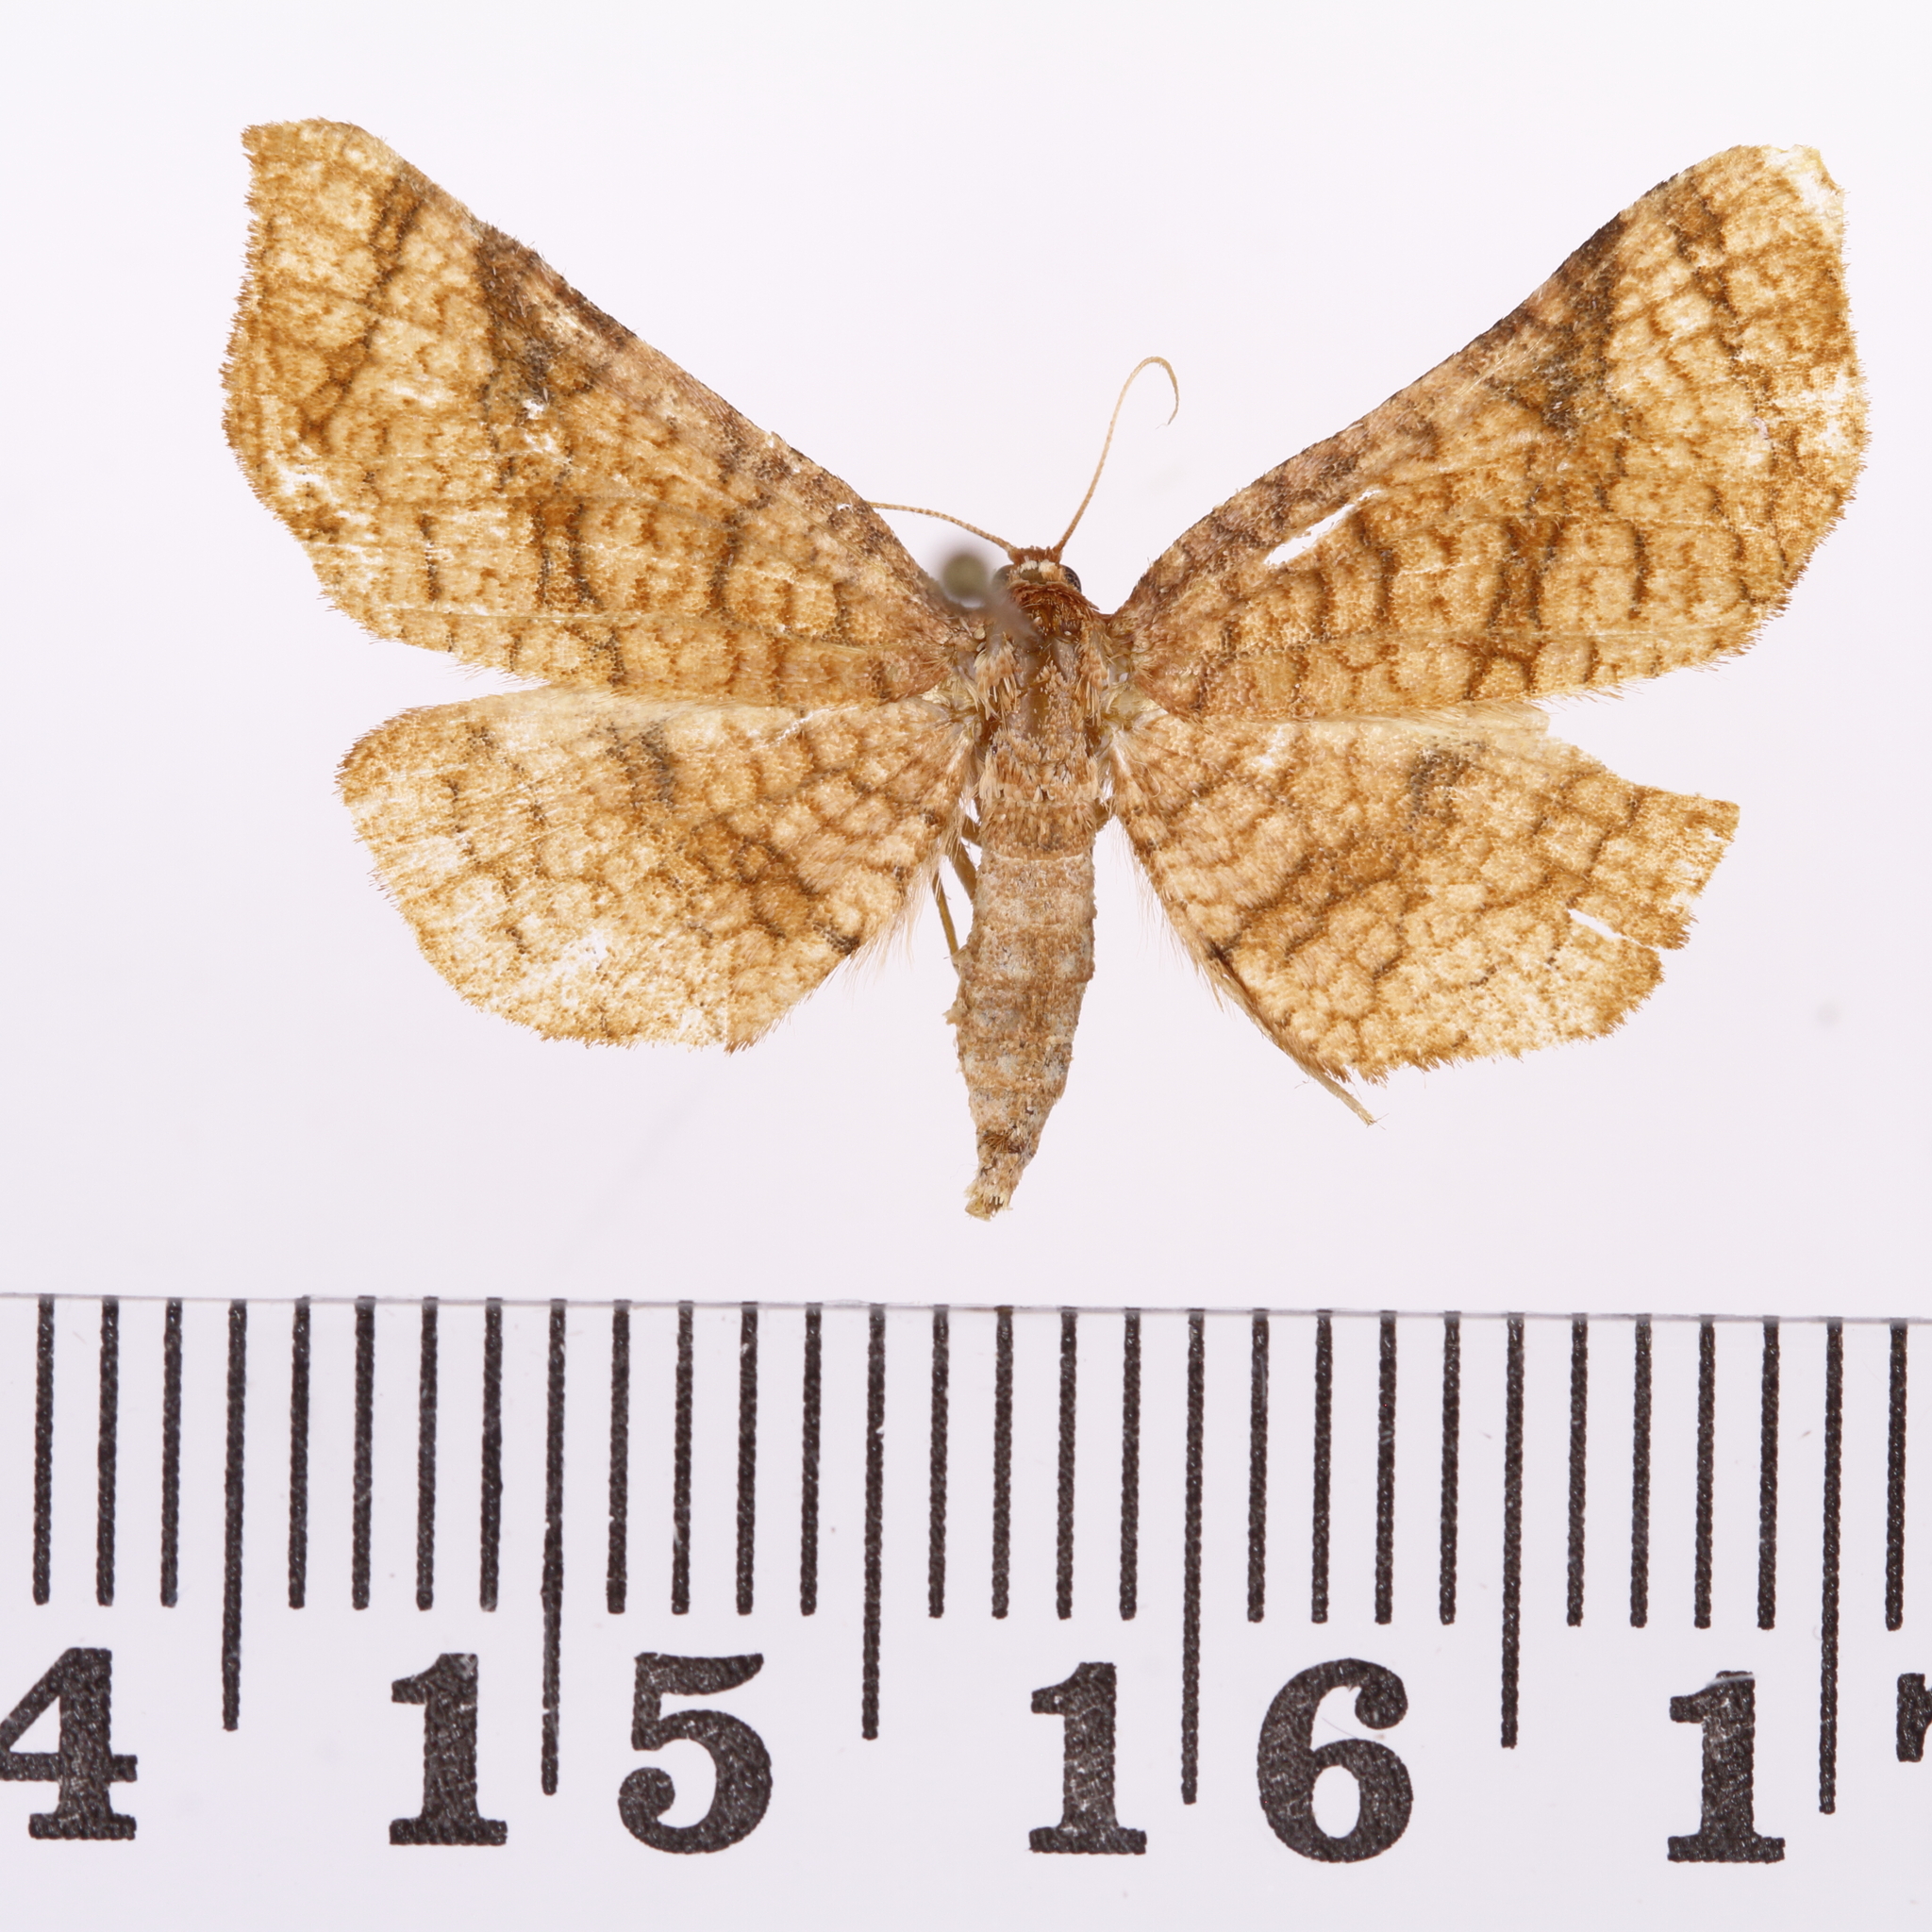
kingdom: Animalia
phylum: Arthropoda
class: Insecta
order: Lepidoptera
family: Thyrididae
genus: Morova
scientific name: Morova subfasciata
